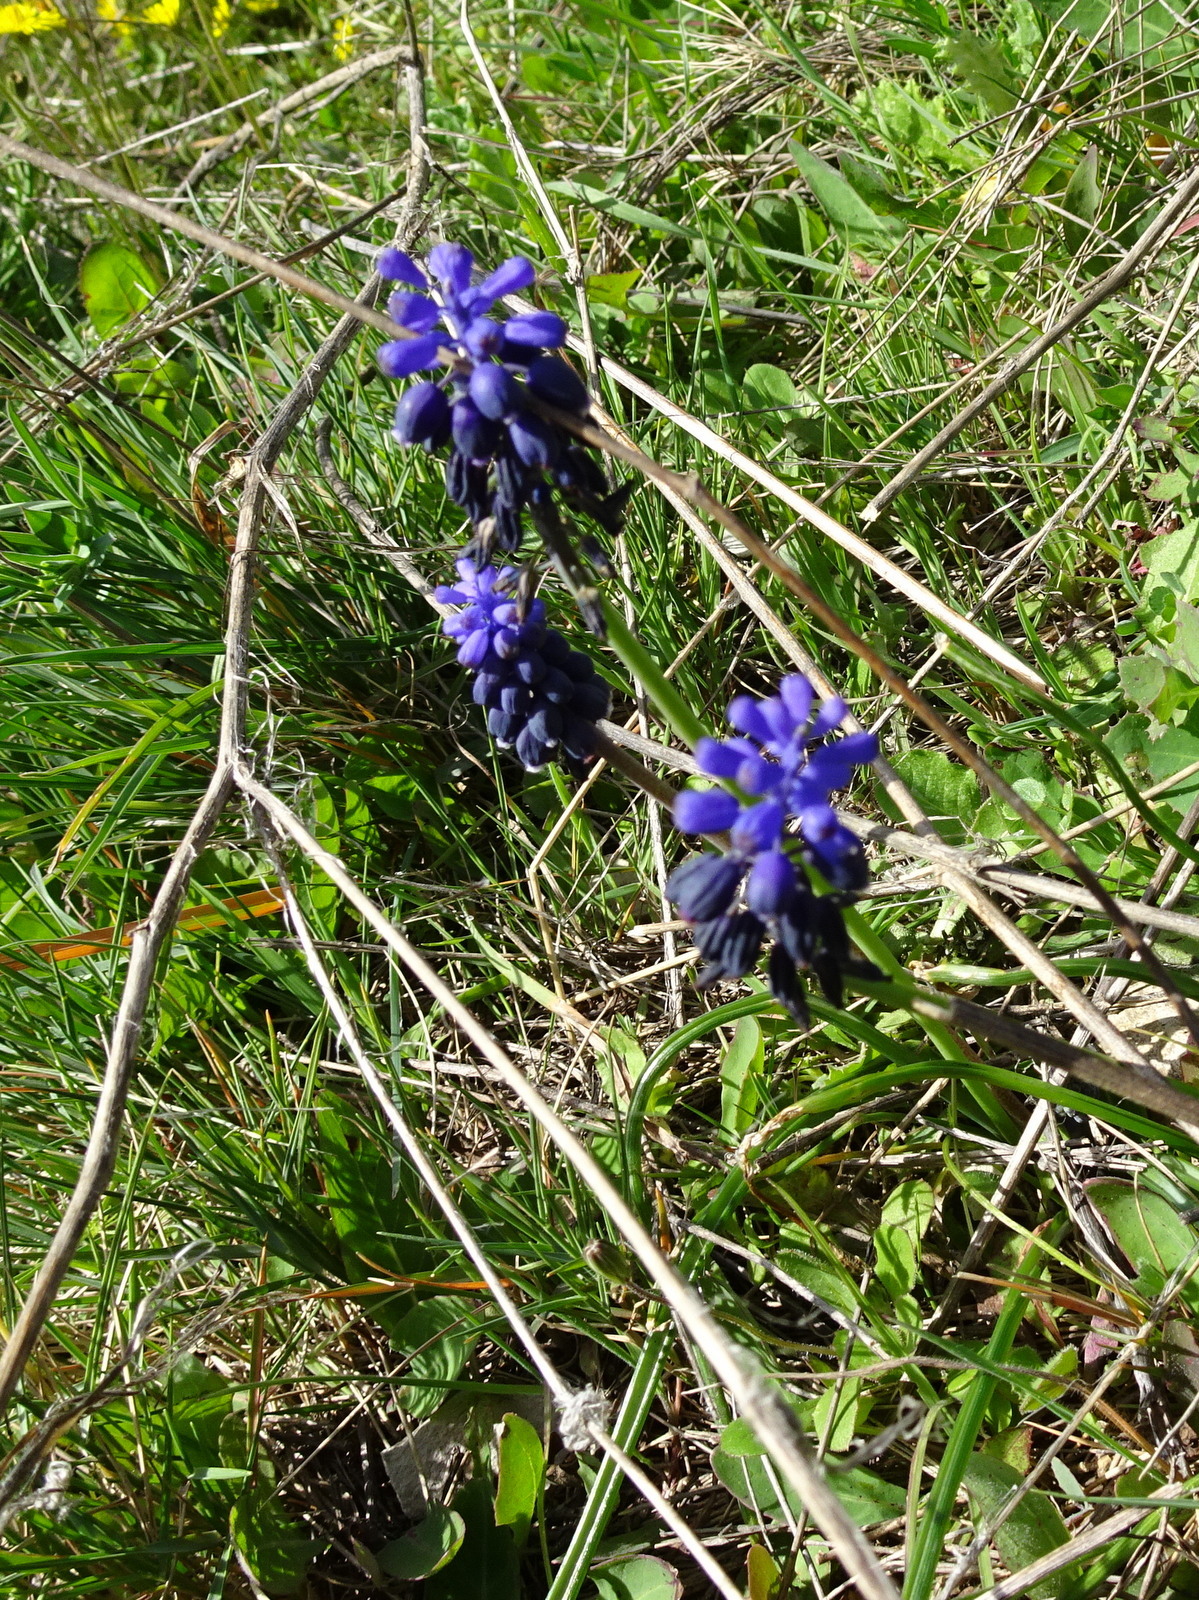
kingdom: Plantae
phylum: Tracheophyta
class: Liliopsida
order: Asparagales
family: Asparagaceae
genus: Muscari
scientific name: Muscari neglectum
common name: Grape-hyacinth
